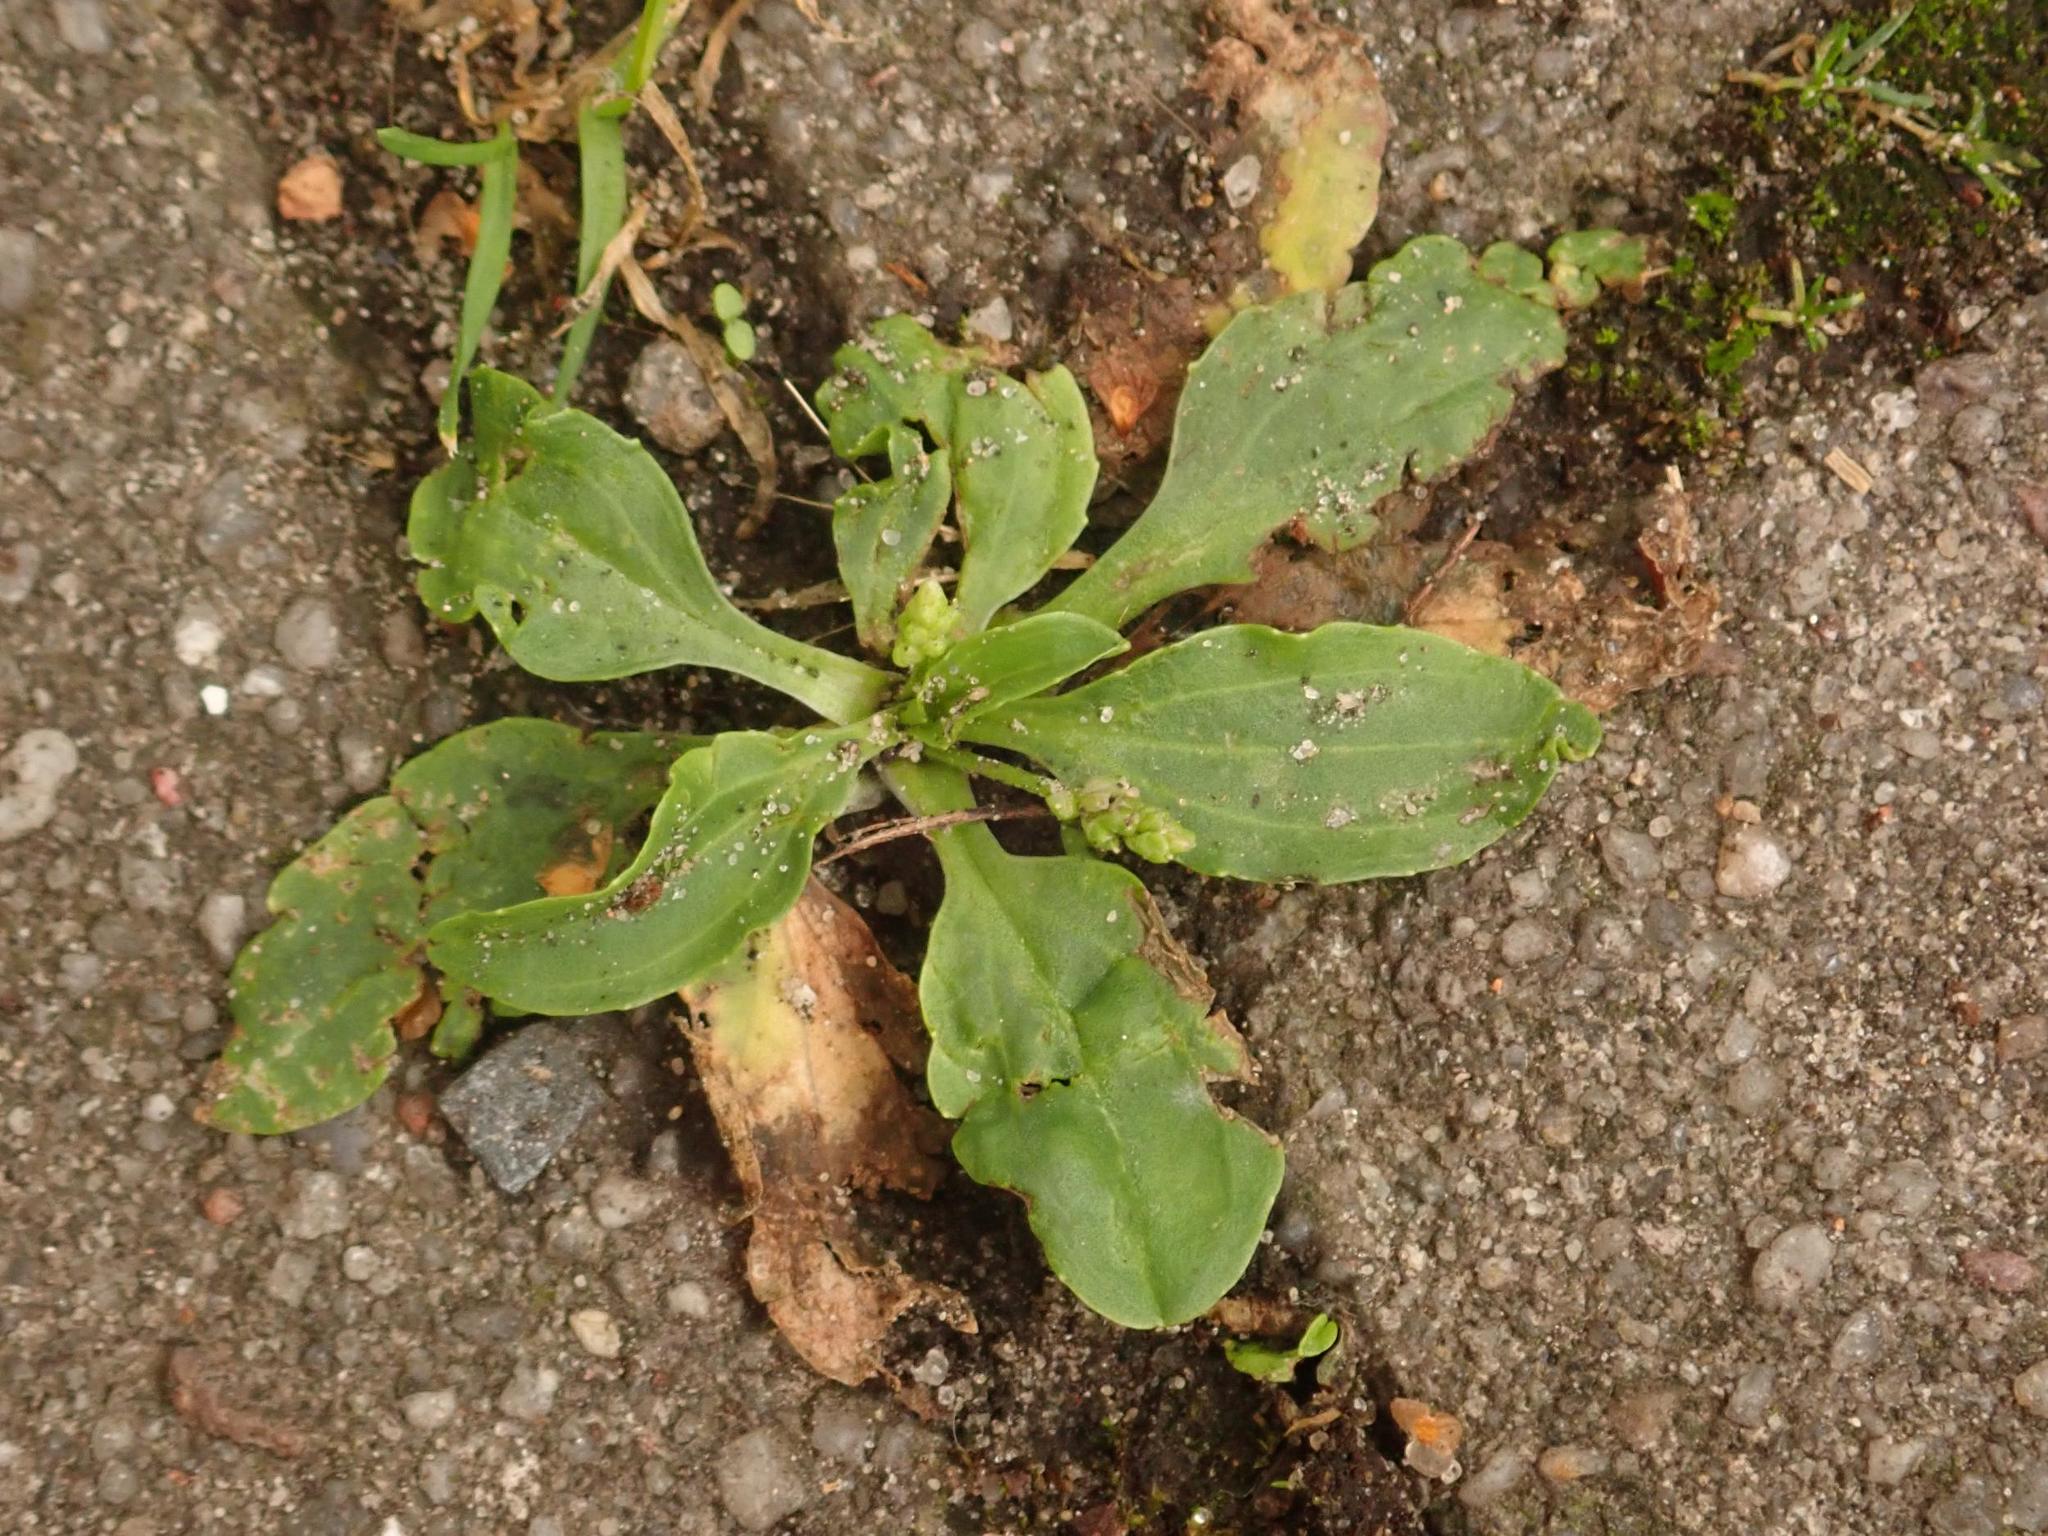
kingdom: Plantae
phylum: Tracheophyta
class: Magnoliopsida
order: Lamiales
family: Plantaginaceae
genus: Plantago
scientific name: Plantago major
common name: Common plantain
